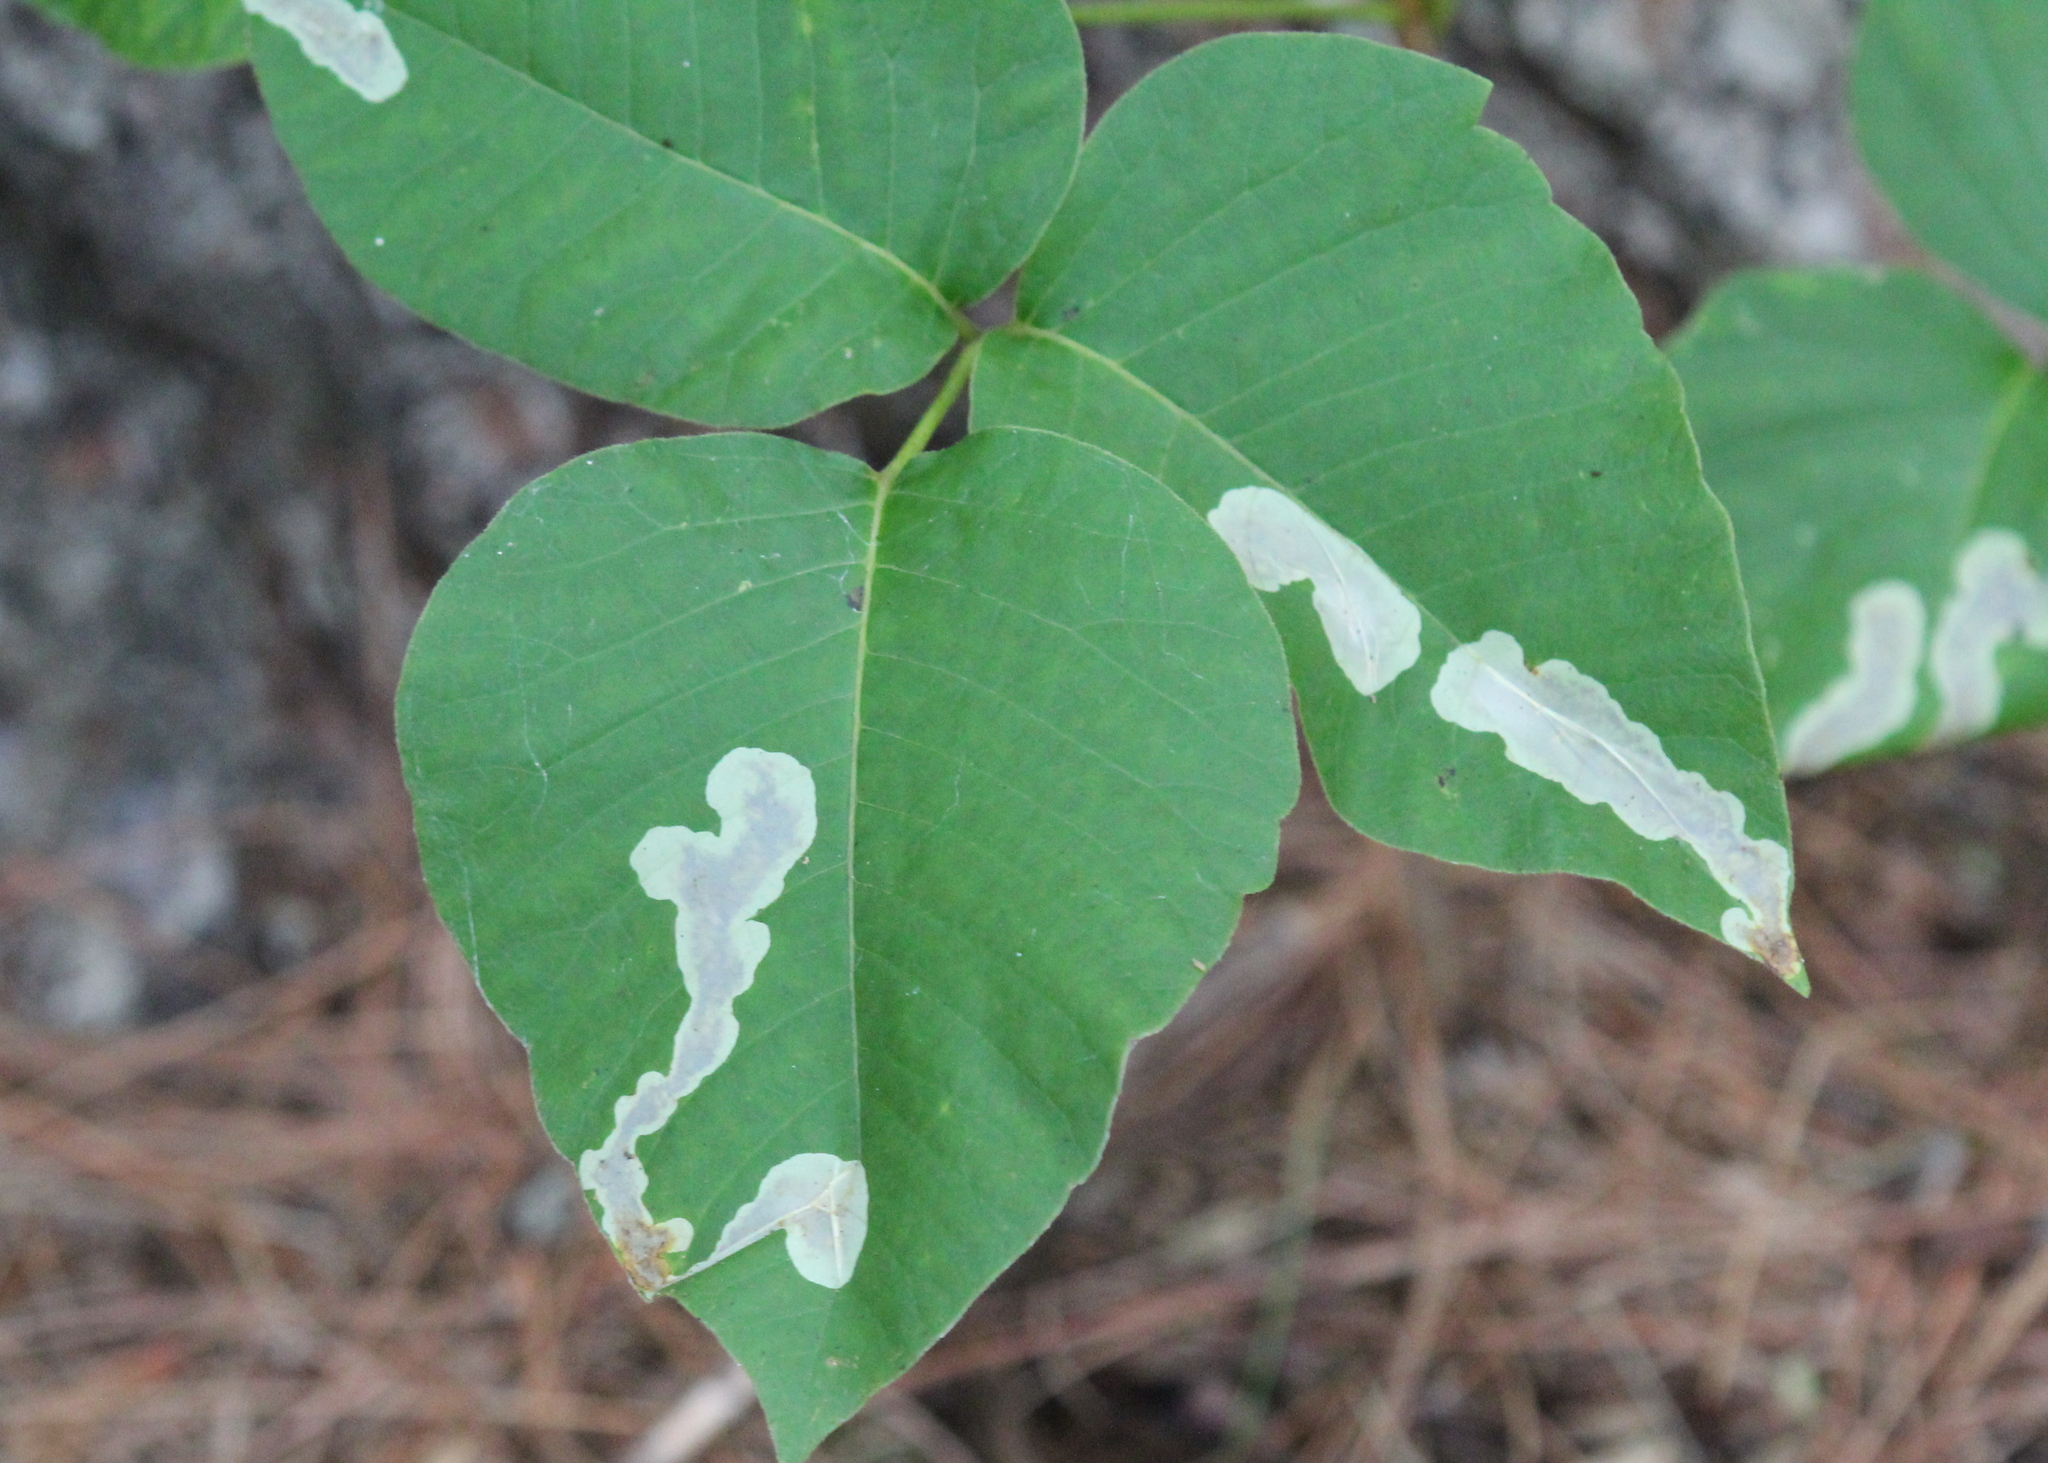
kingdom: Animalia
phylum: Arthropoda
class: Insecta
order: Lepidoptera
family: Gracillariidae
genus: Cameraria
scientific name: Cameraria guttifinitella
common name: Poison ivy leaf-miner moth
